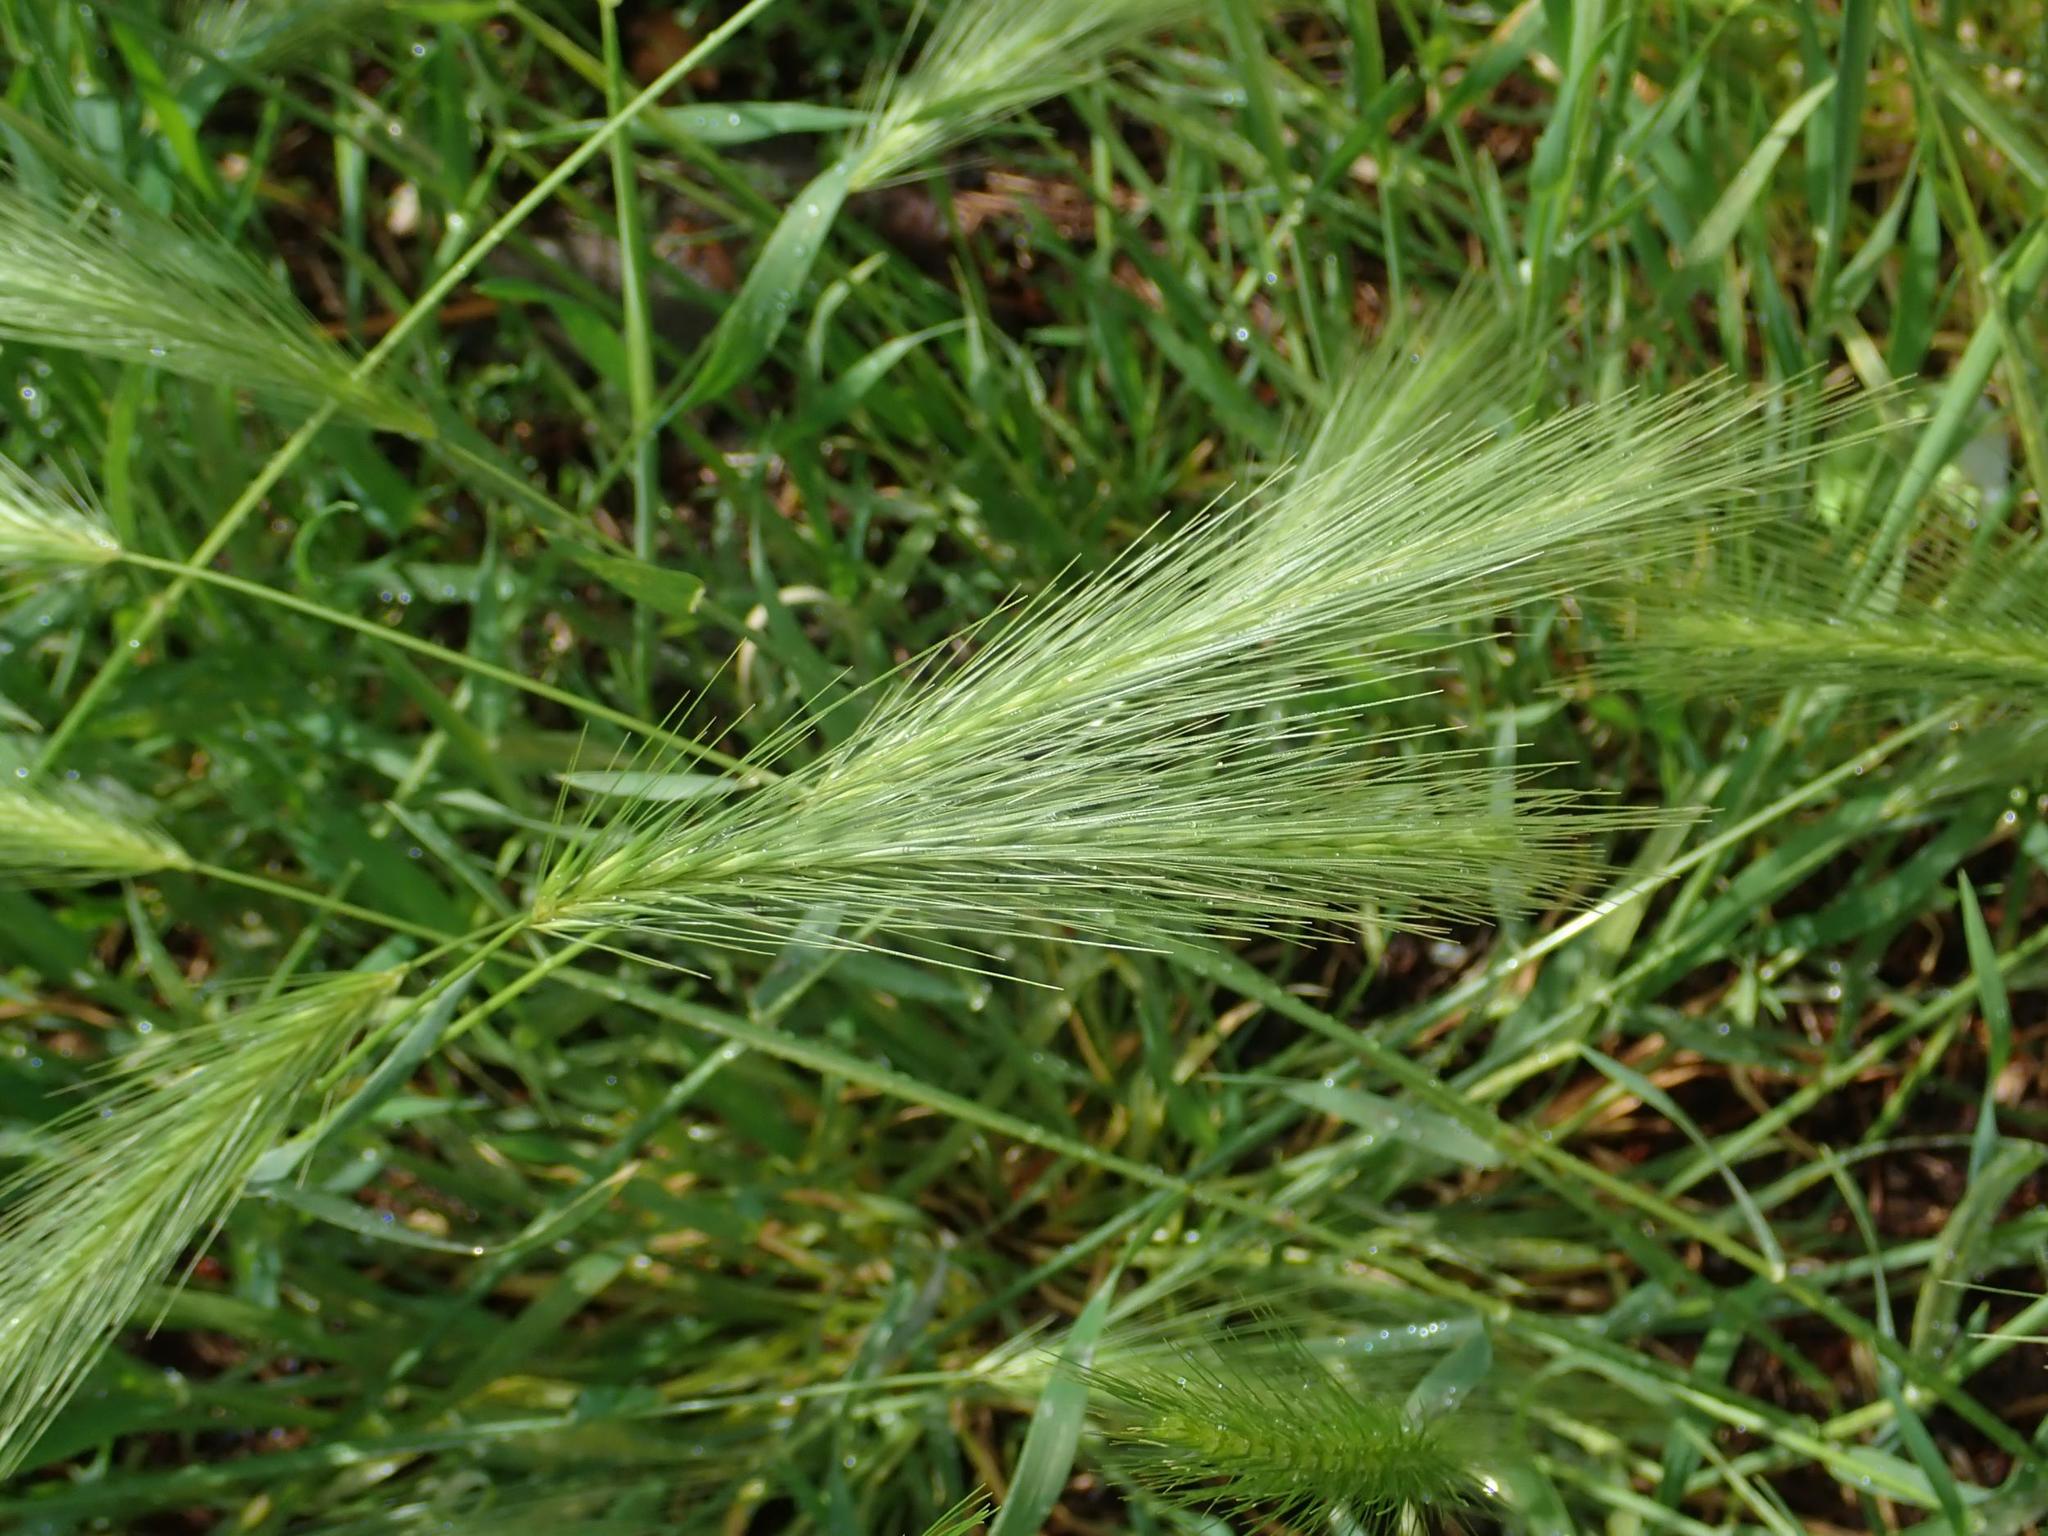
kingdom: Plantae
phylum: Tracheophyta
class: Liliopsida
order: Poales
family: Poaceae
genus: Hordeum
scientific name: Hordeum murinum
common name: Wall barley
